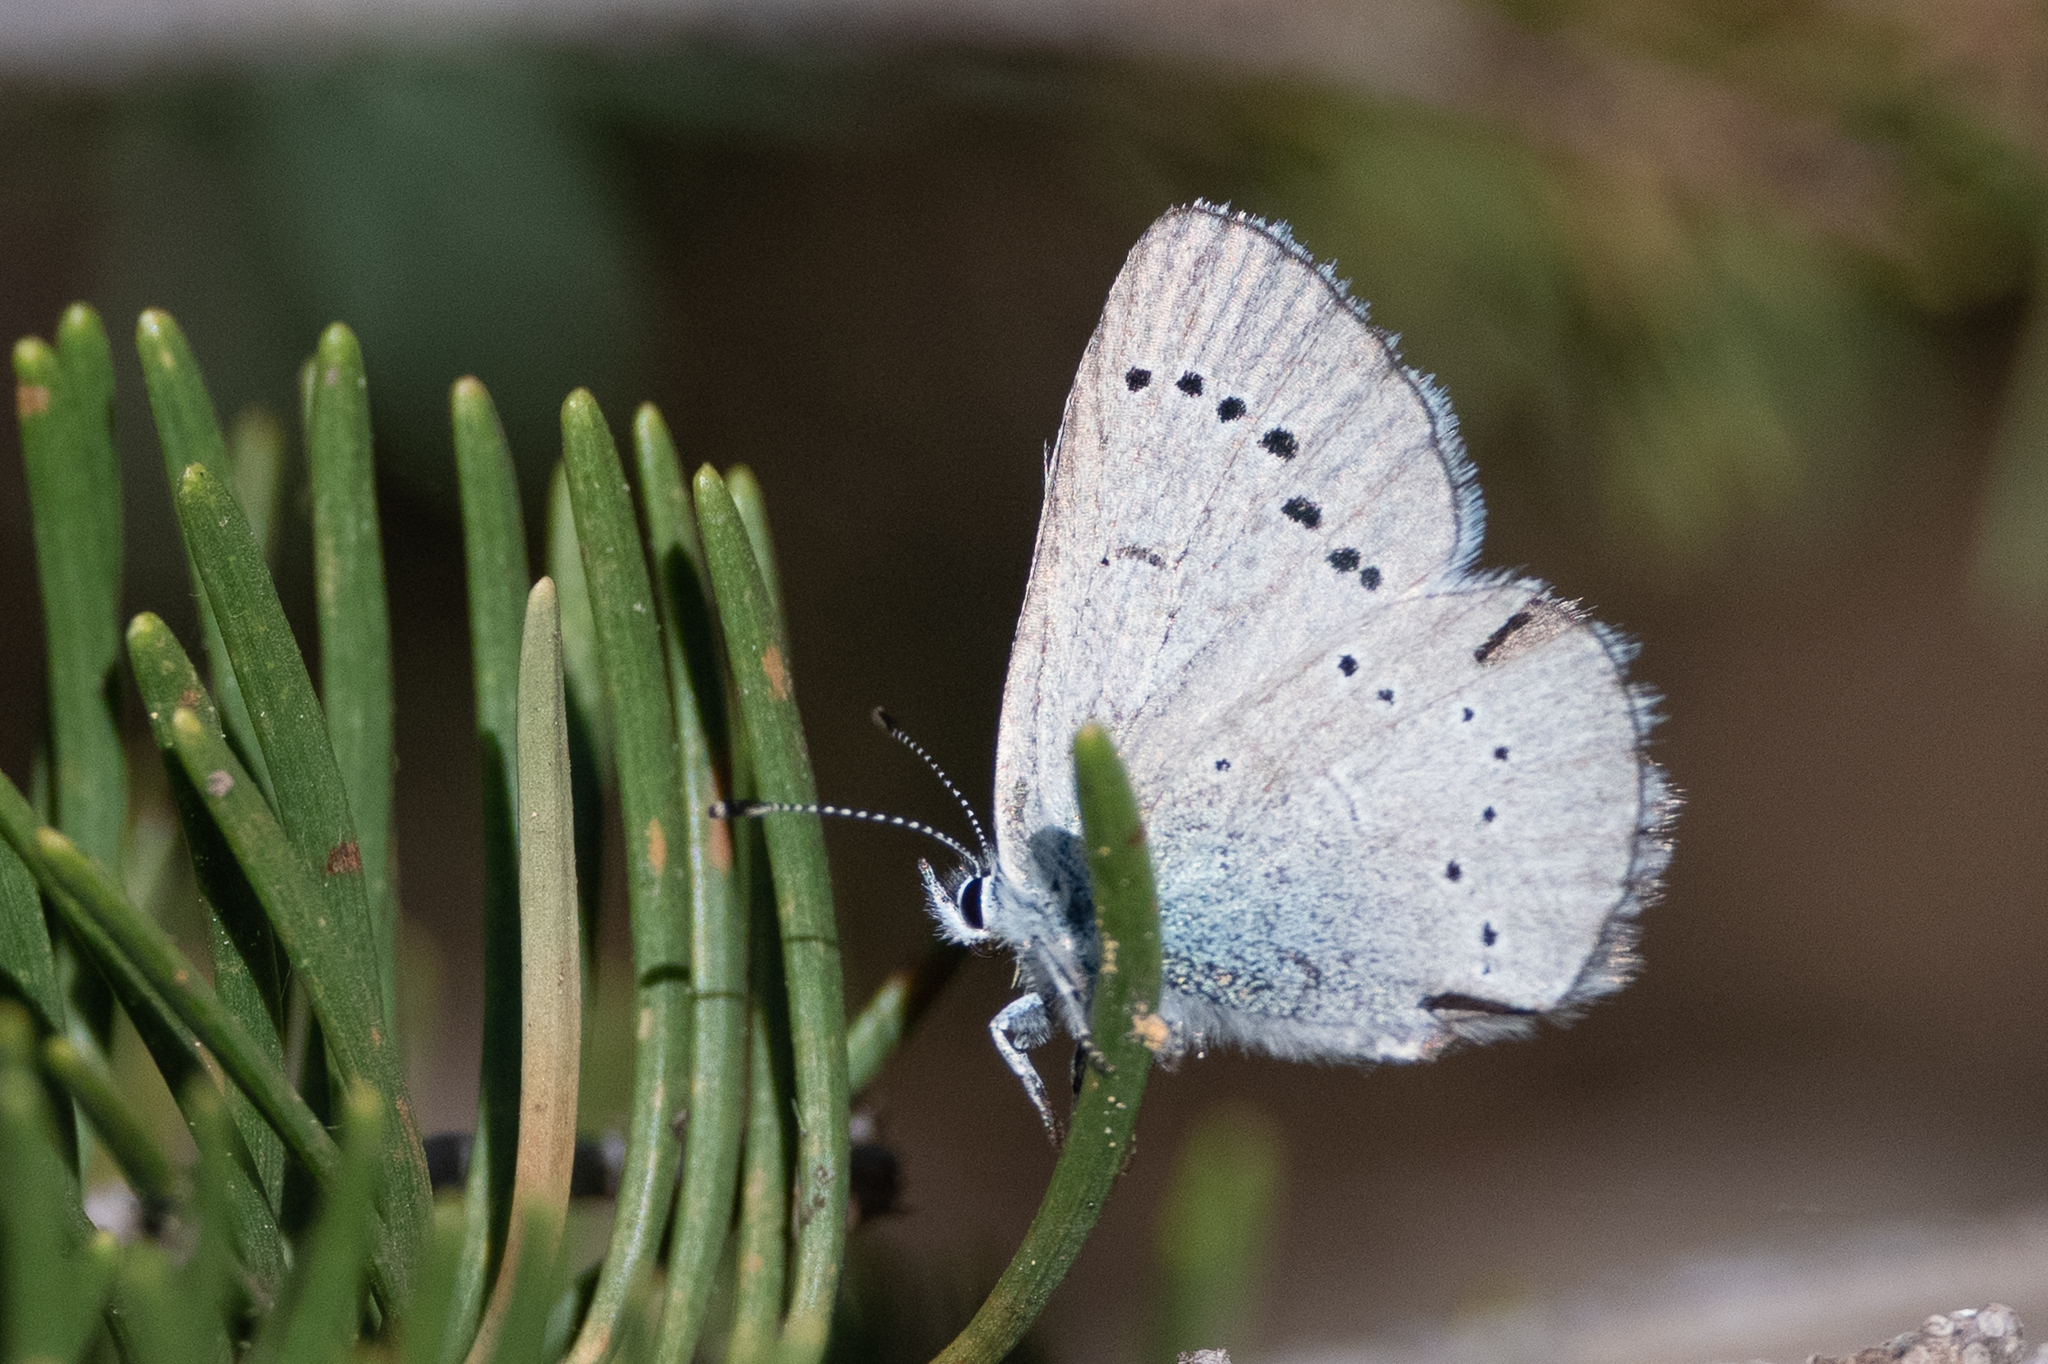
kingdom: Animalia
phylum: Arthropoda
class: Insecta
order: Lepidoptera
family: Lycaenidae
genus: Glaucopsyche
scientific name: Glaucopsyche lygdamus
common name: Silvery blue
